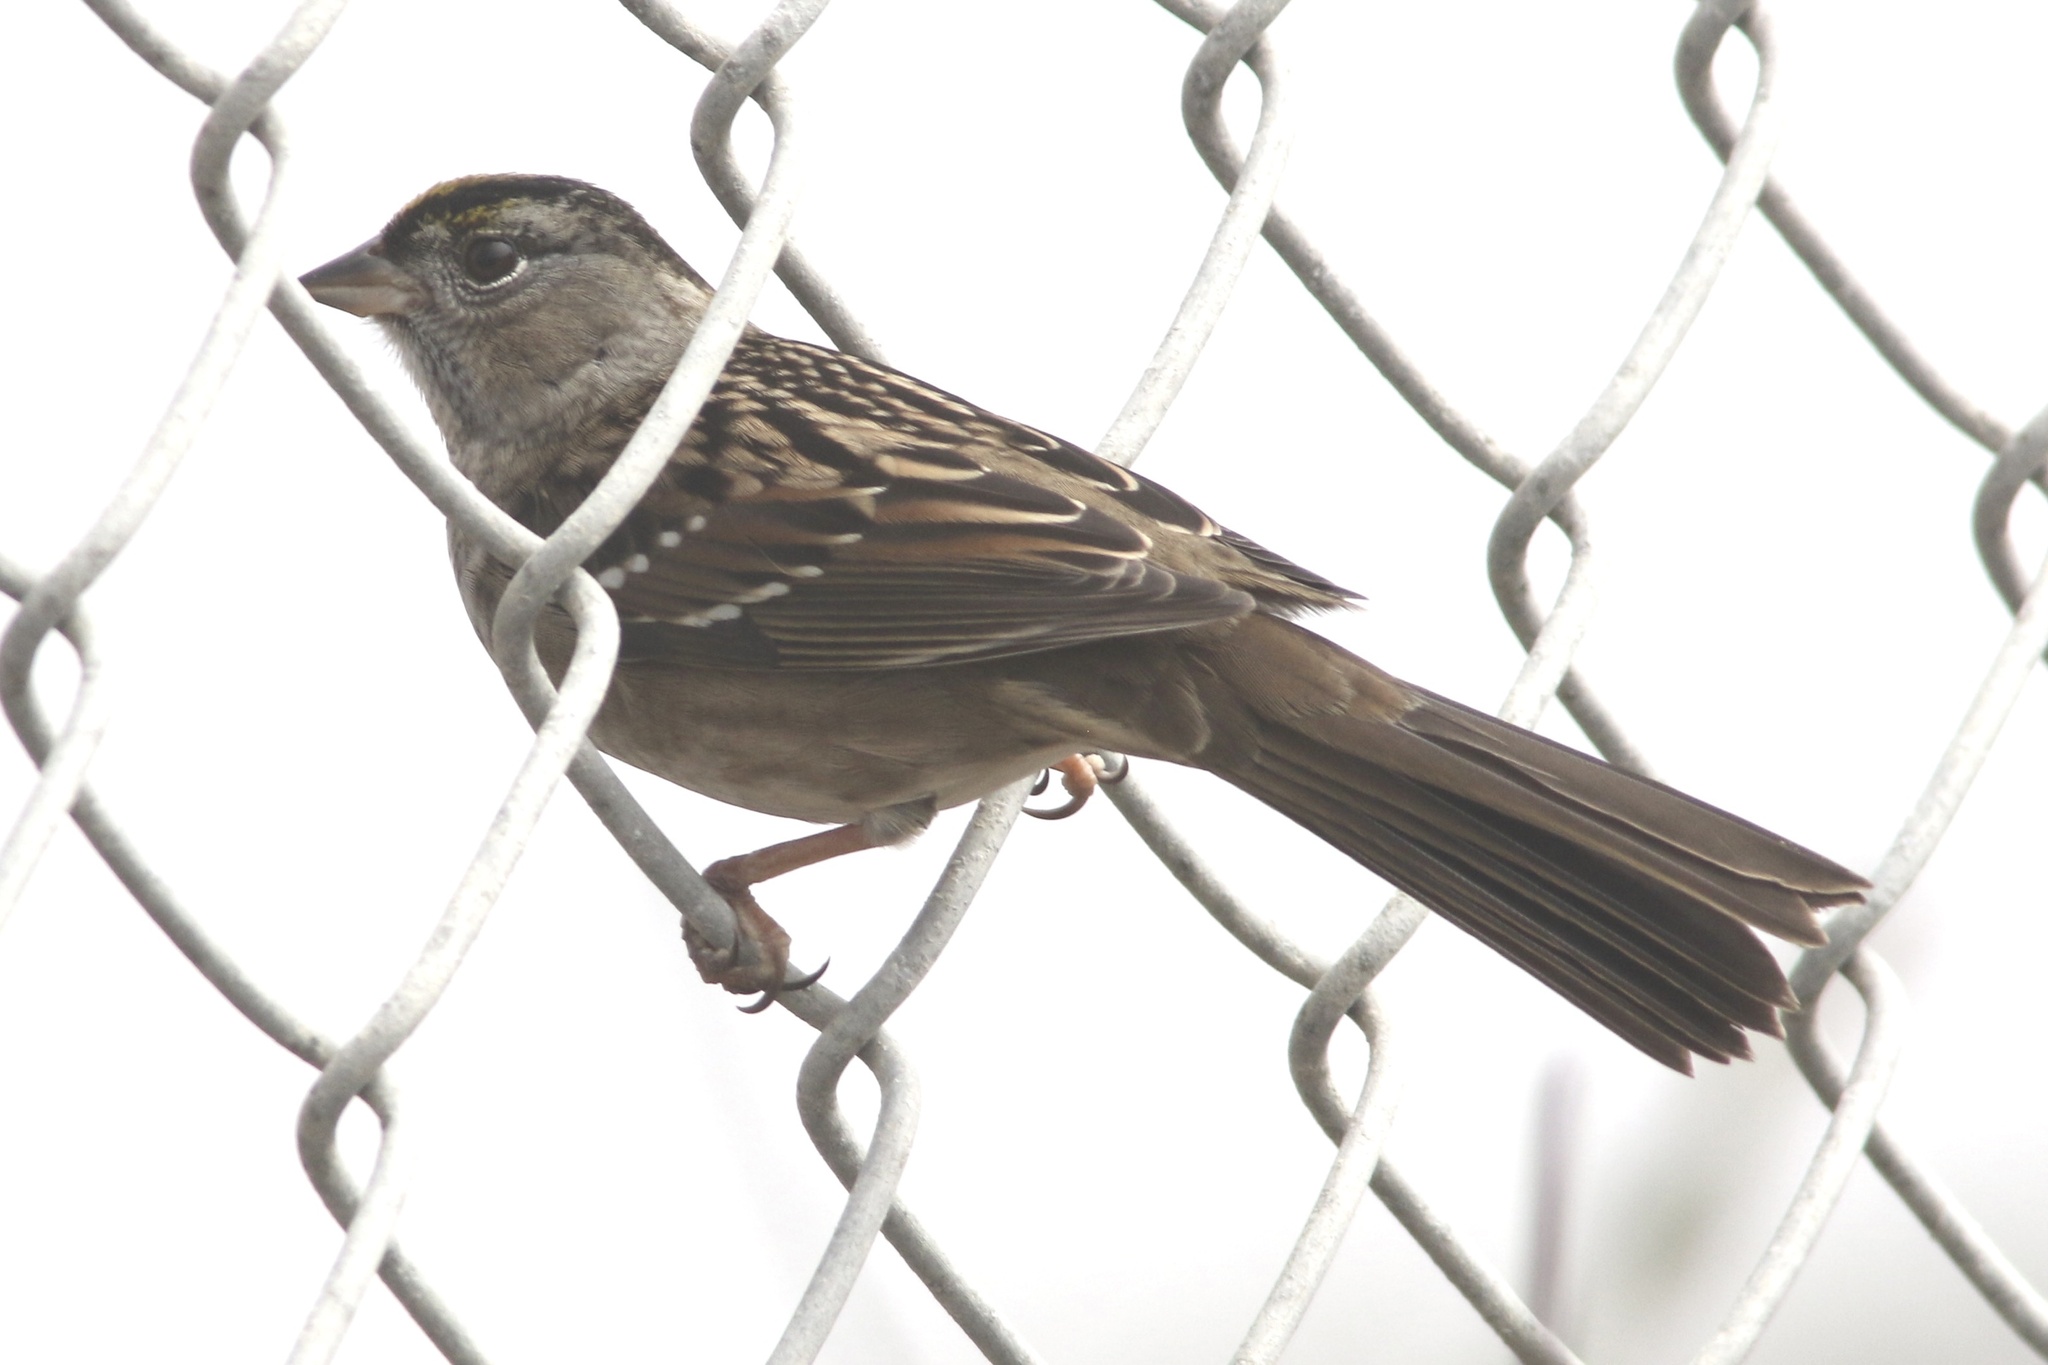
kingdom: Animalia
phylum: Chordata
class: Aves
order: Passeriformes
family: Passerellidae
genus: Zonotrichia
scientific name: Zonotrichia atricapilla
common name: Golden-crowned sparrow
